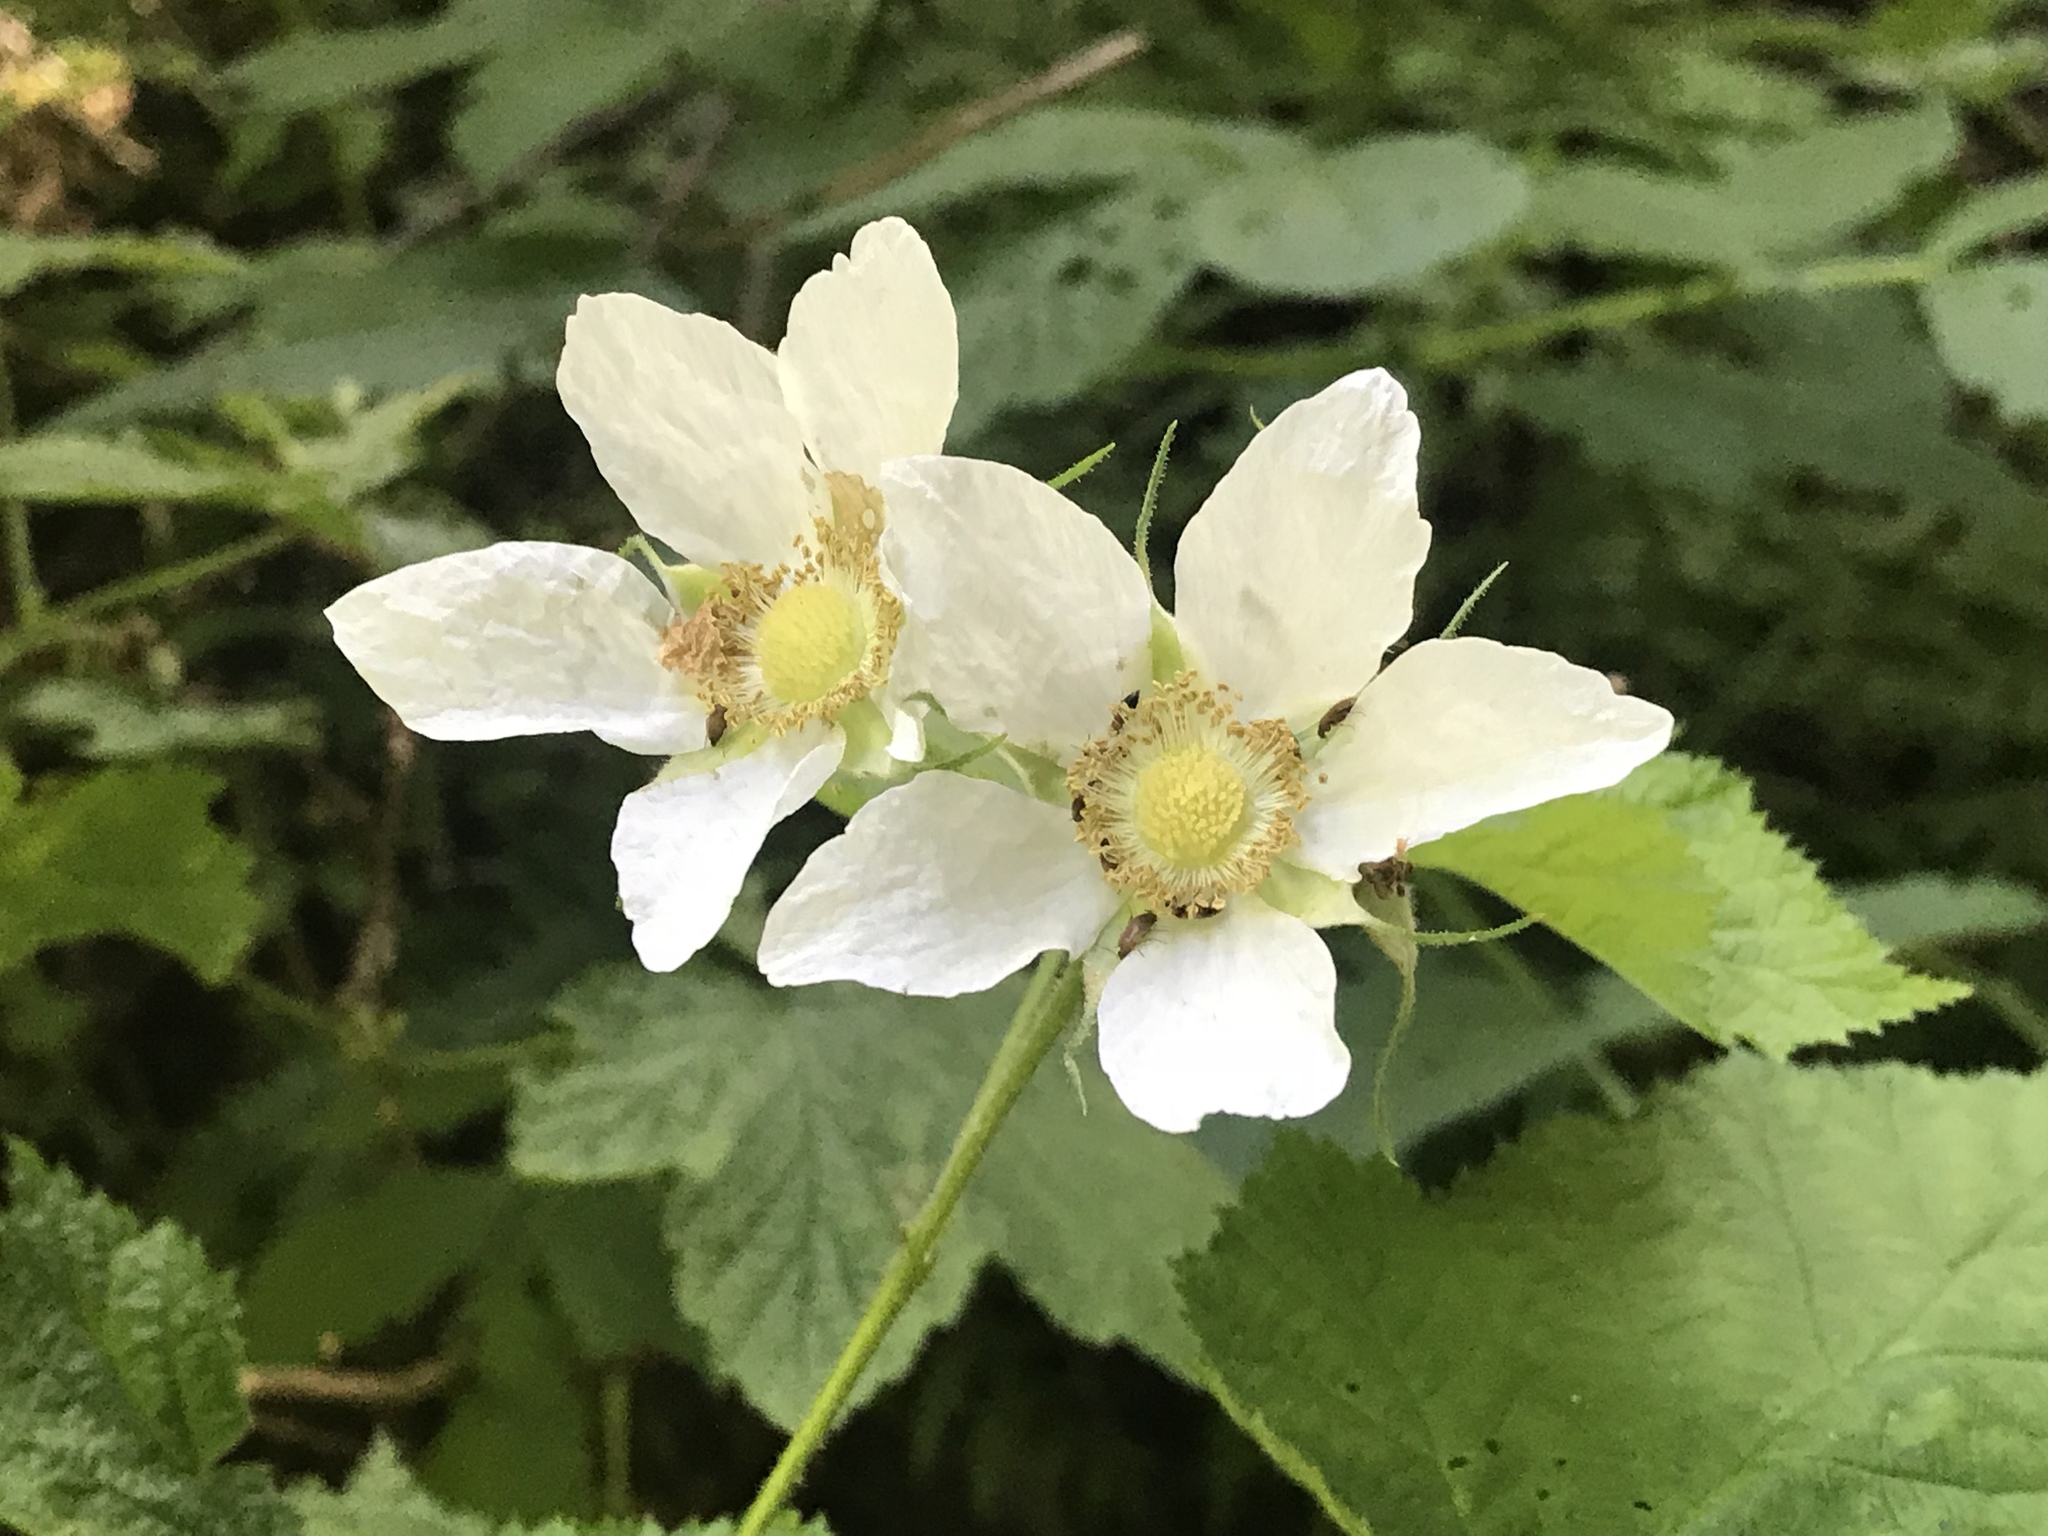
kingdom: Plantae
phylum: Tracheophyta
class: Magnoliopsida
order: Rosales
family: Rosaceae
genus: Rubus
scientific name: Rubus parviflorus
